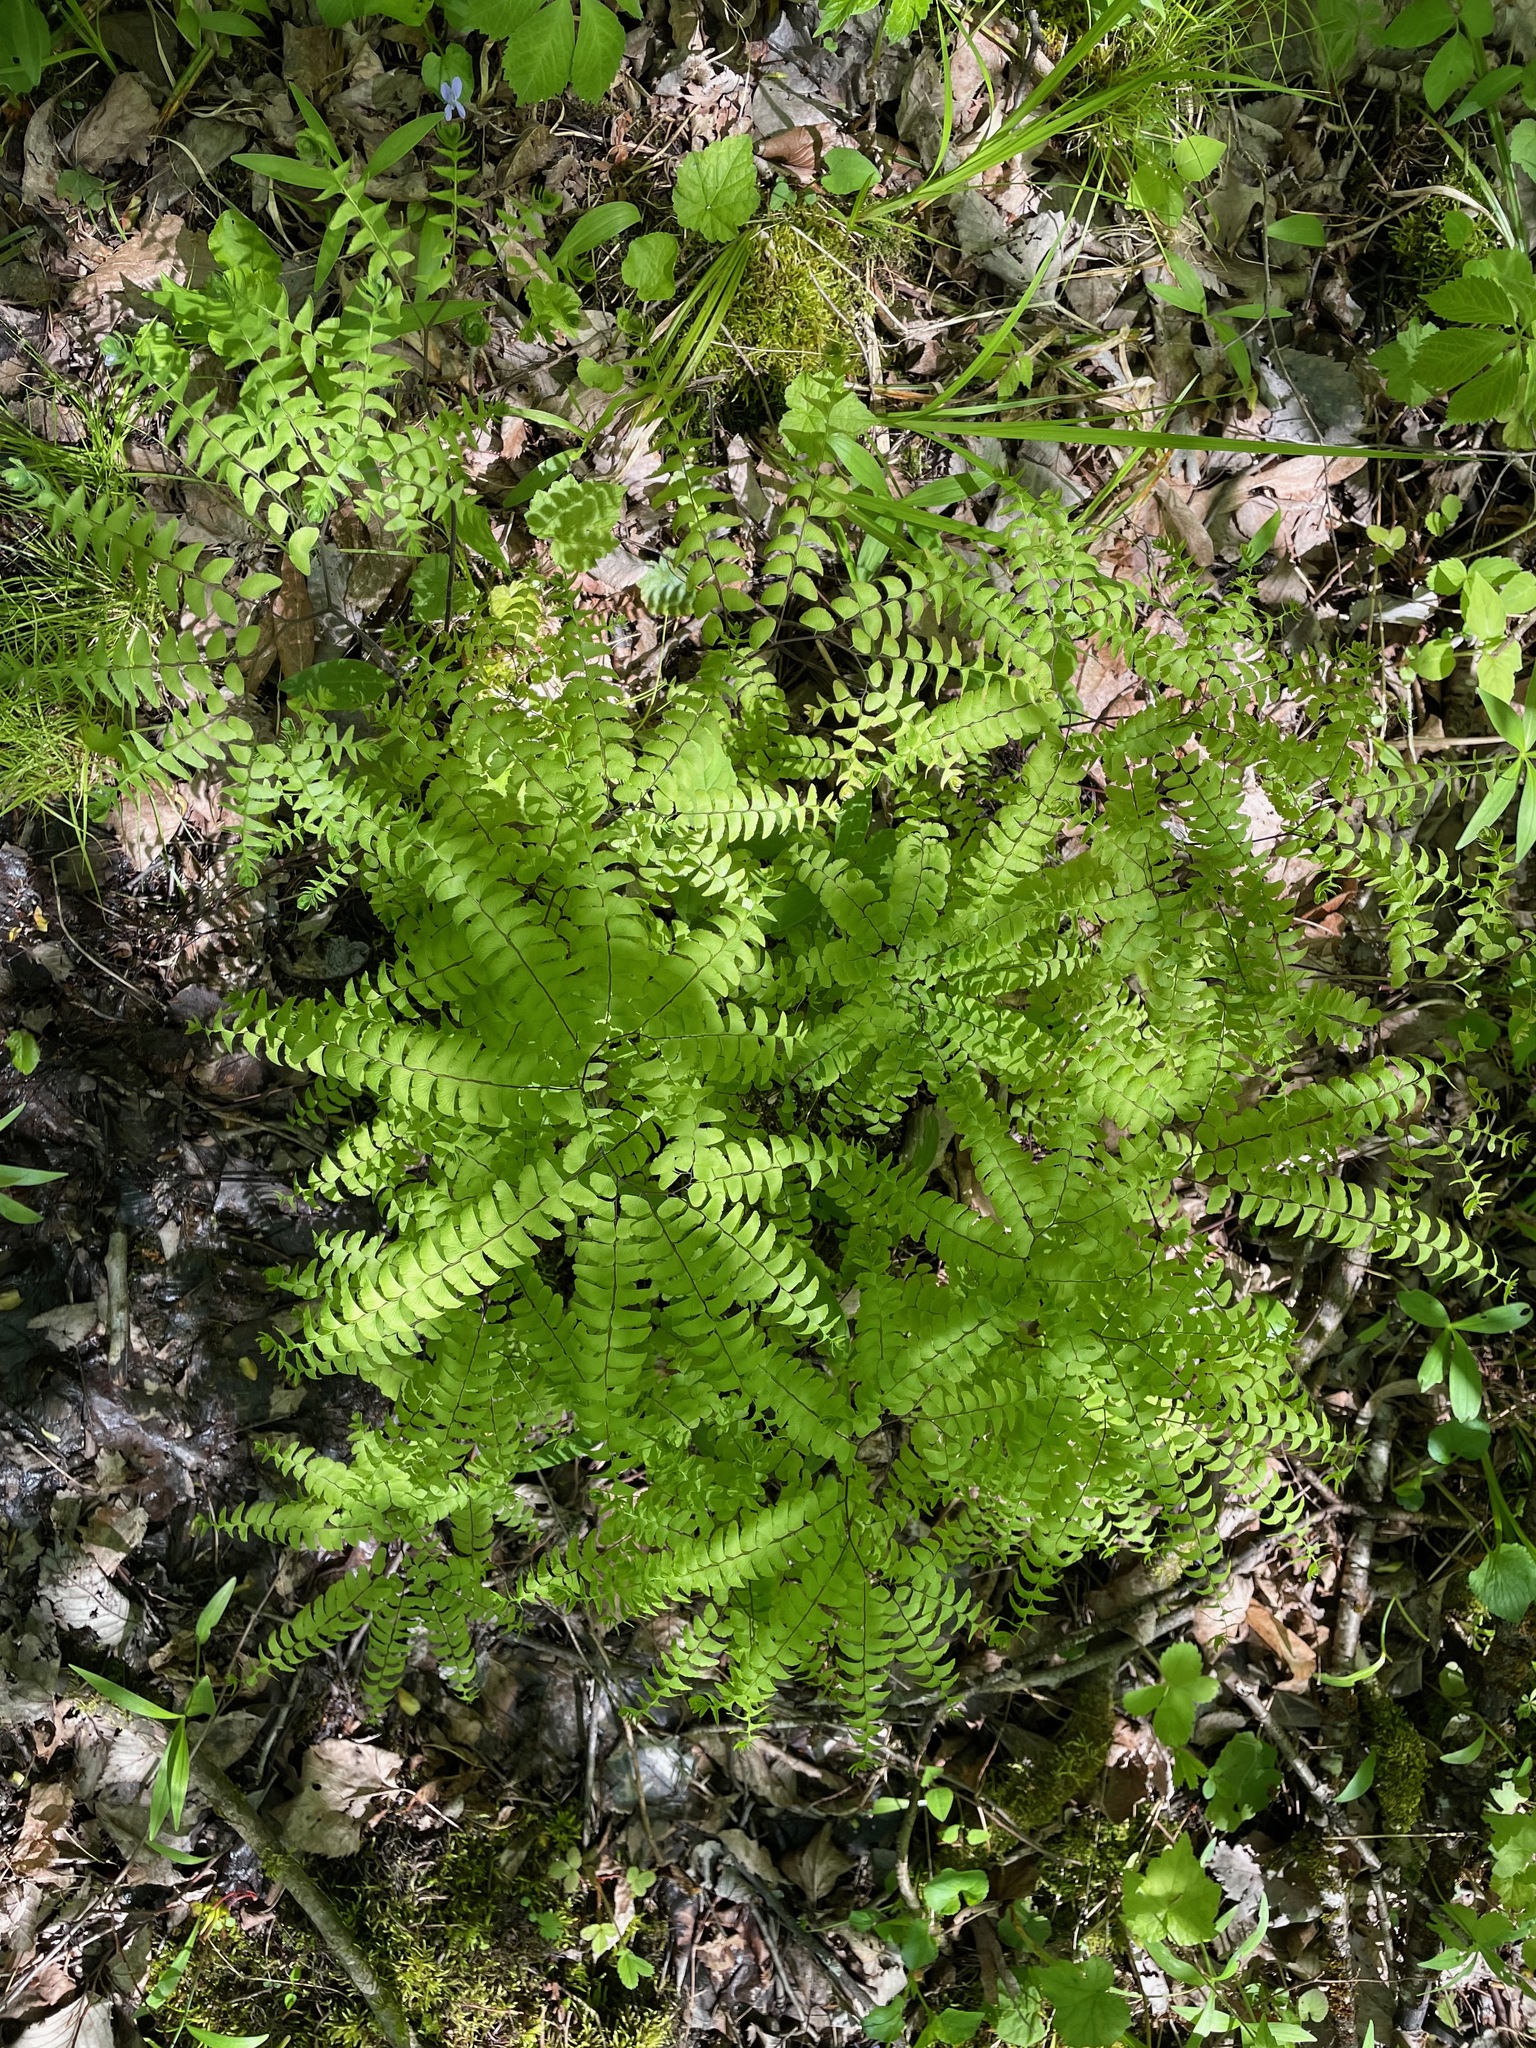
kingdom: Plantae
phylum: Tracheophyta
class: Polypodiopsida
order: Polypodiales
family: Pteridaceae
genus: Adiantum
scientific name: Adiantum pedatum
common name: Five-finger fern
